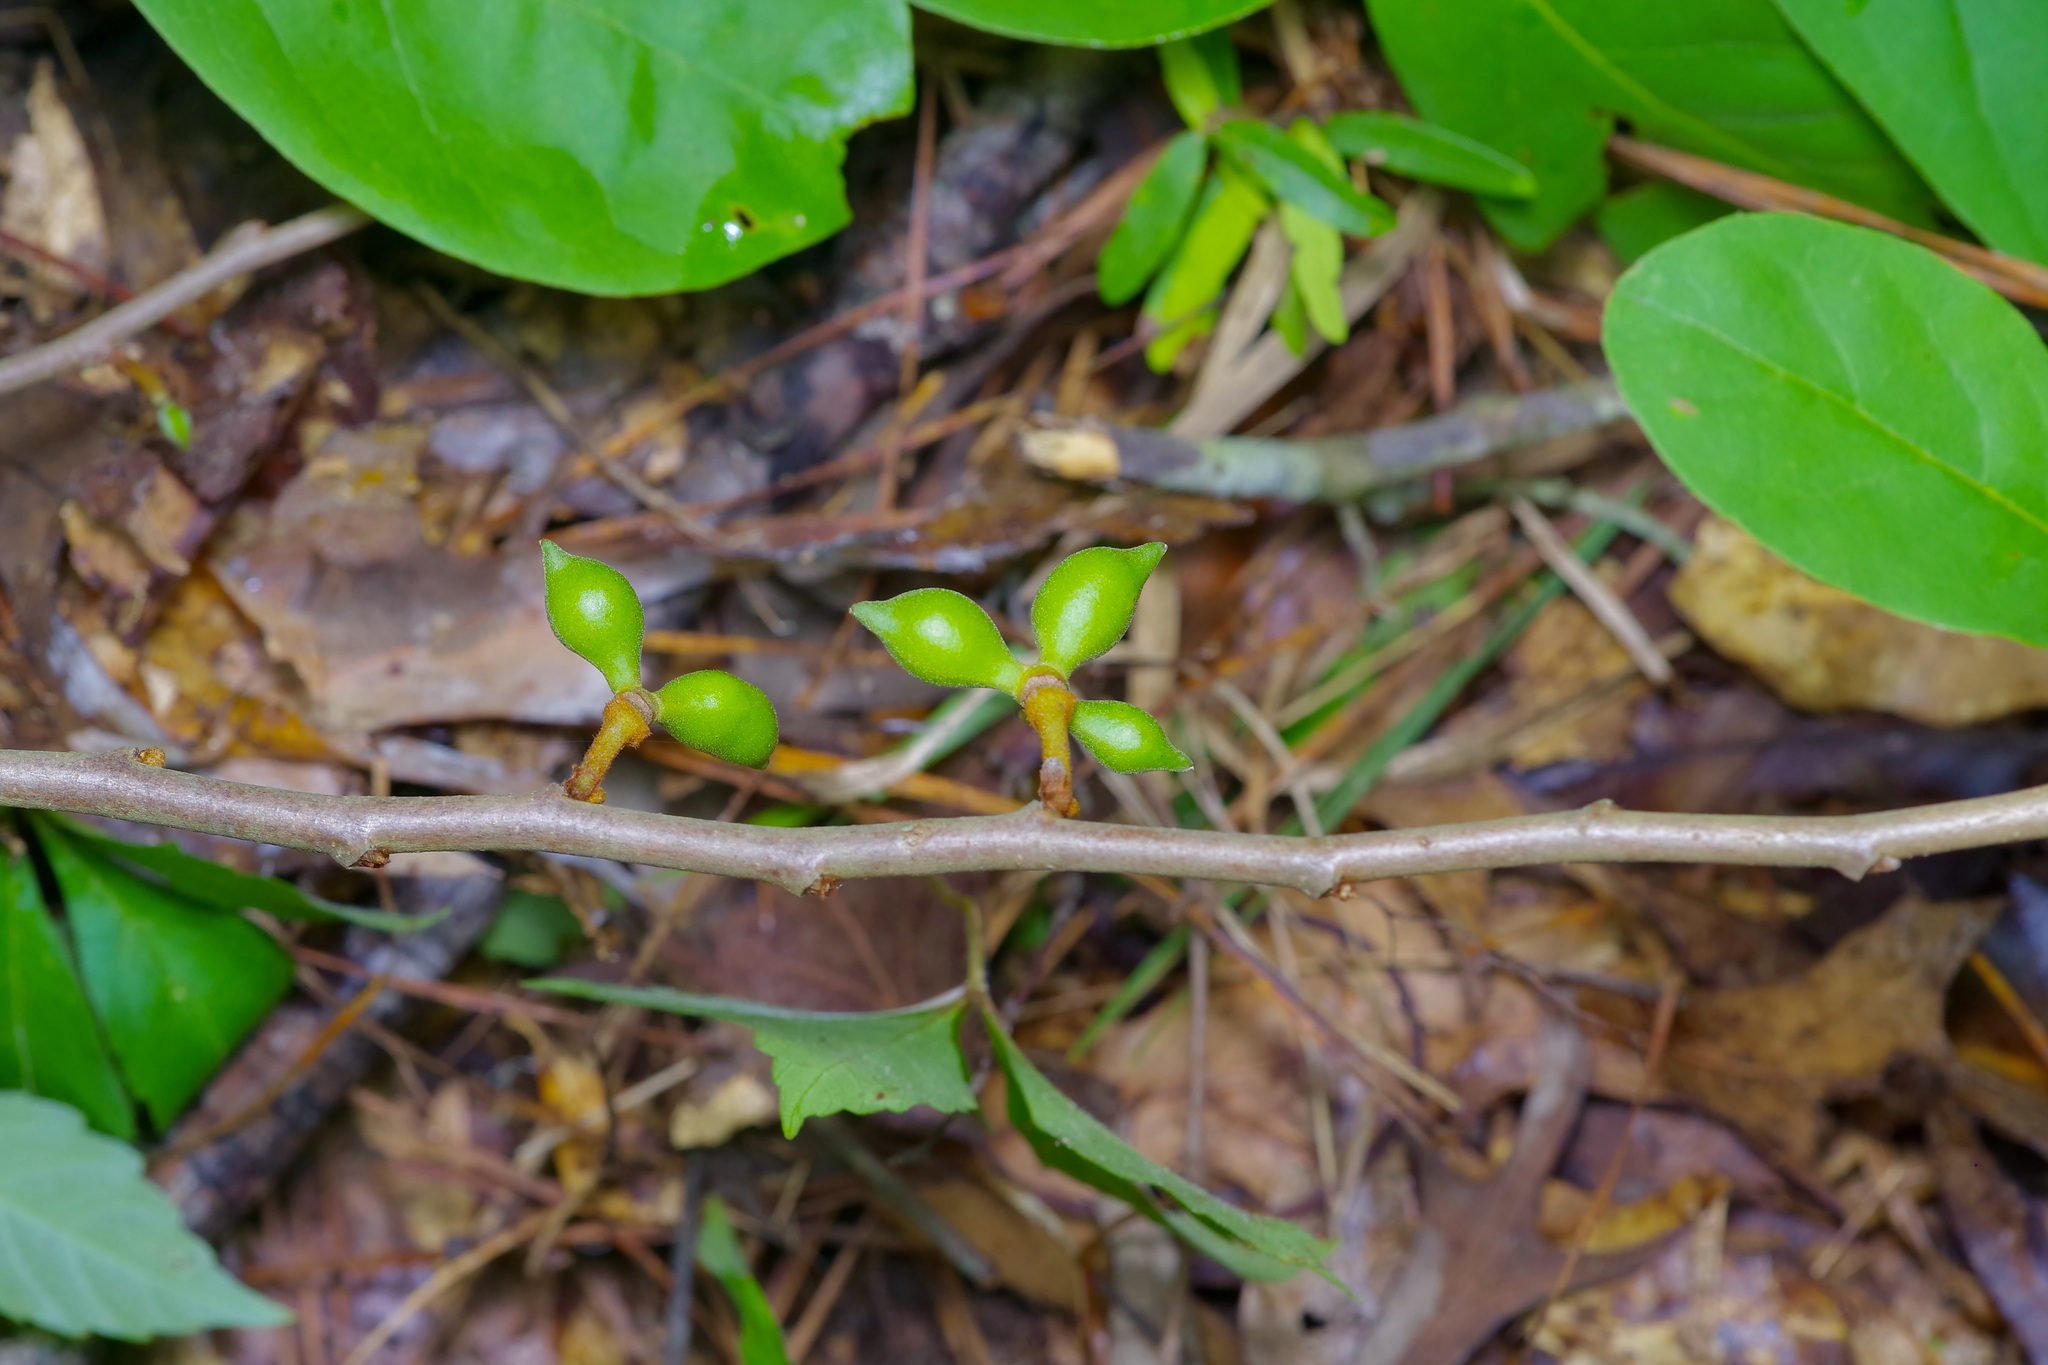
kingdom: Plantae
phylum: Tracheophyta
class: Magnoliopsida
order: Magnoliales
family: Annonaceae
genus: Asimina
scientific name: Asimina parviflora
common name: Dwarf pawpaw
